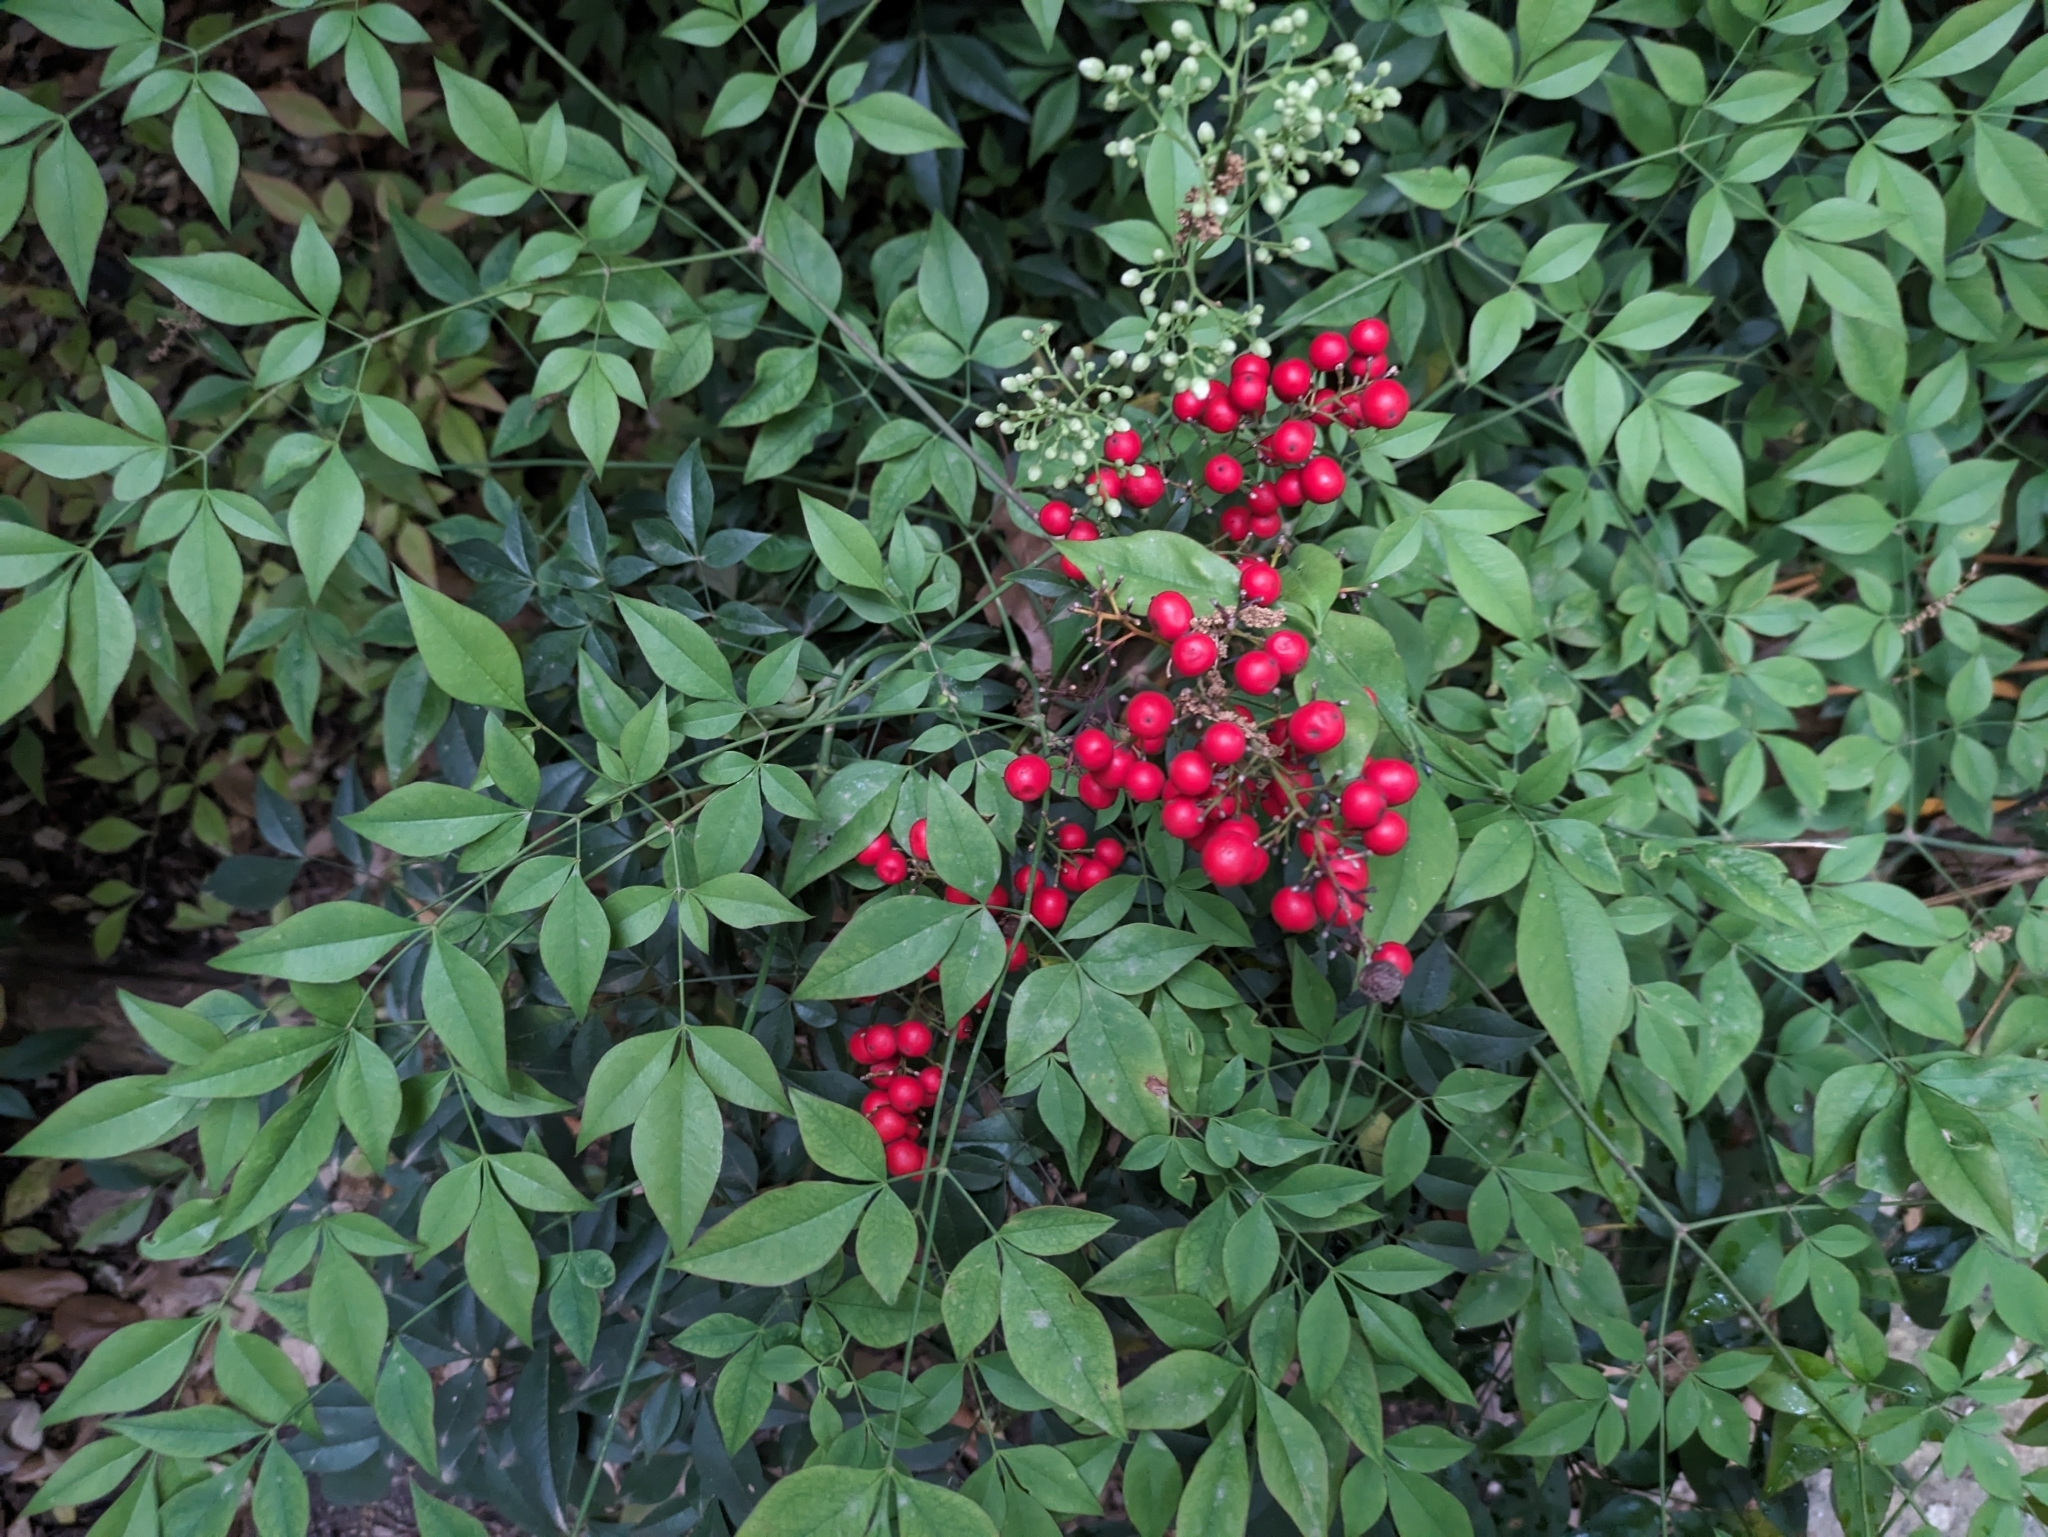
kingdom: Plantae
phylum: Tracheophyta
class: Magnoliopsida
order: Ranunculales
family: Berberidaceae
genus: Nandina
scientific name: Nandina domestica
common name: Sacred bamboo
